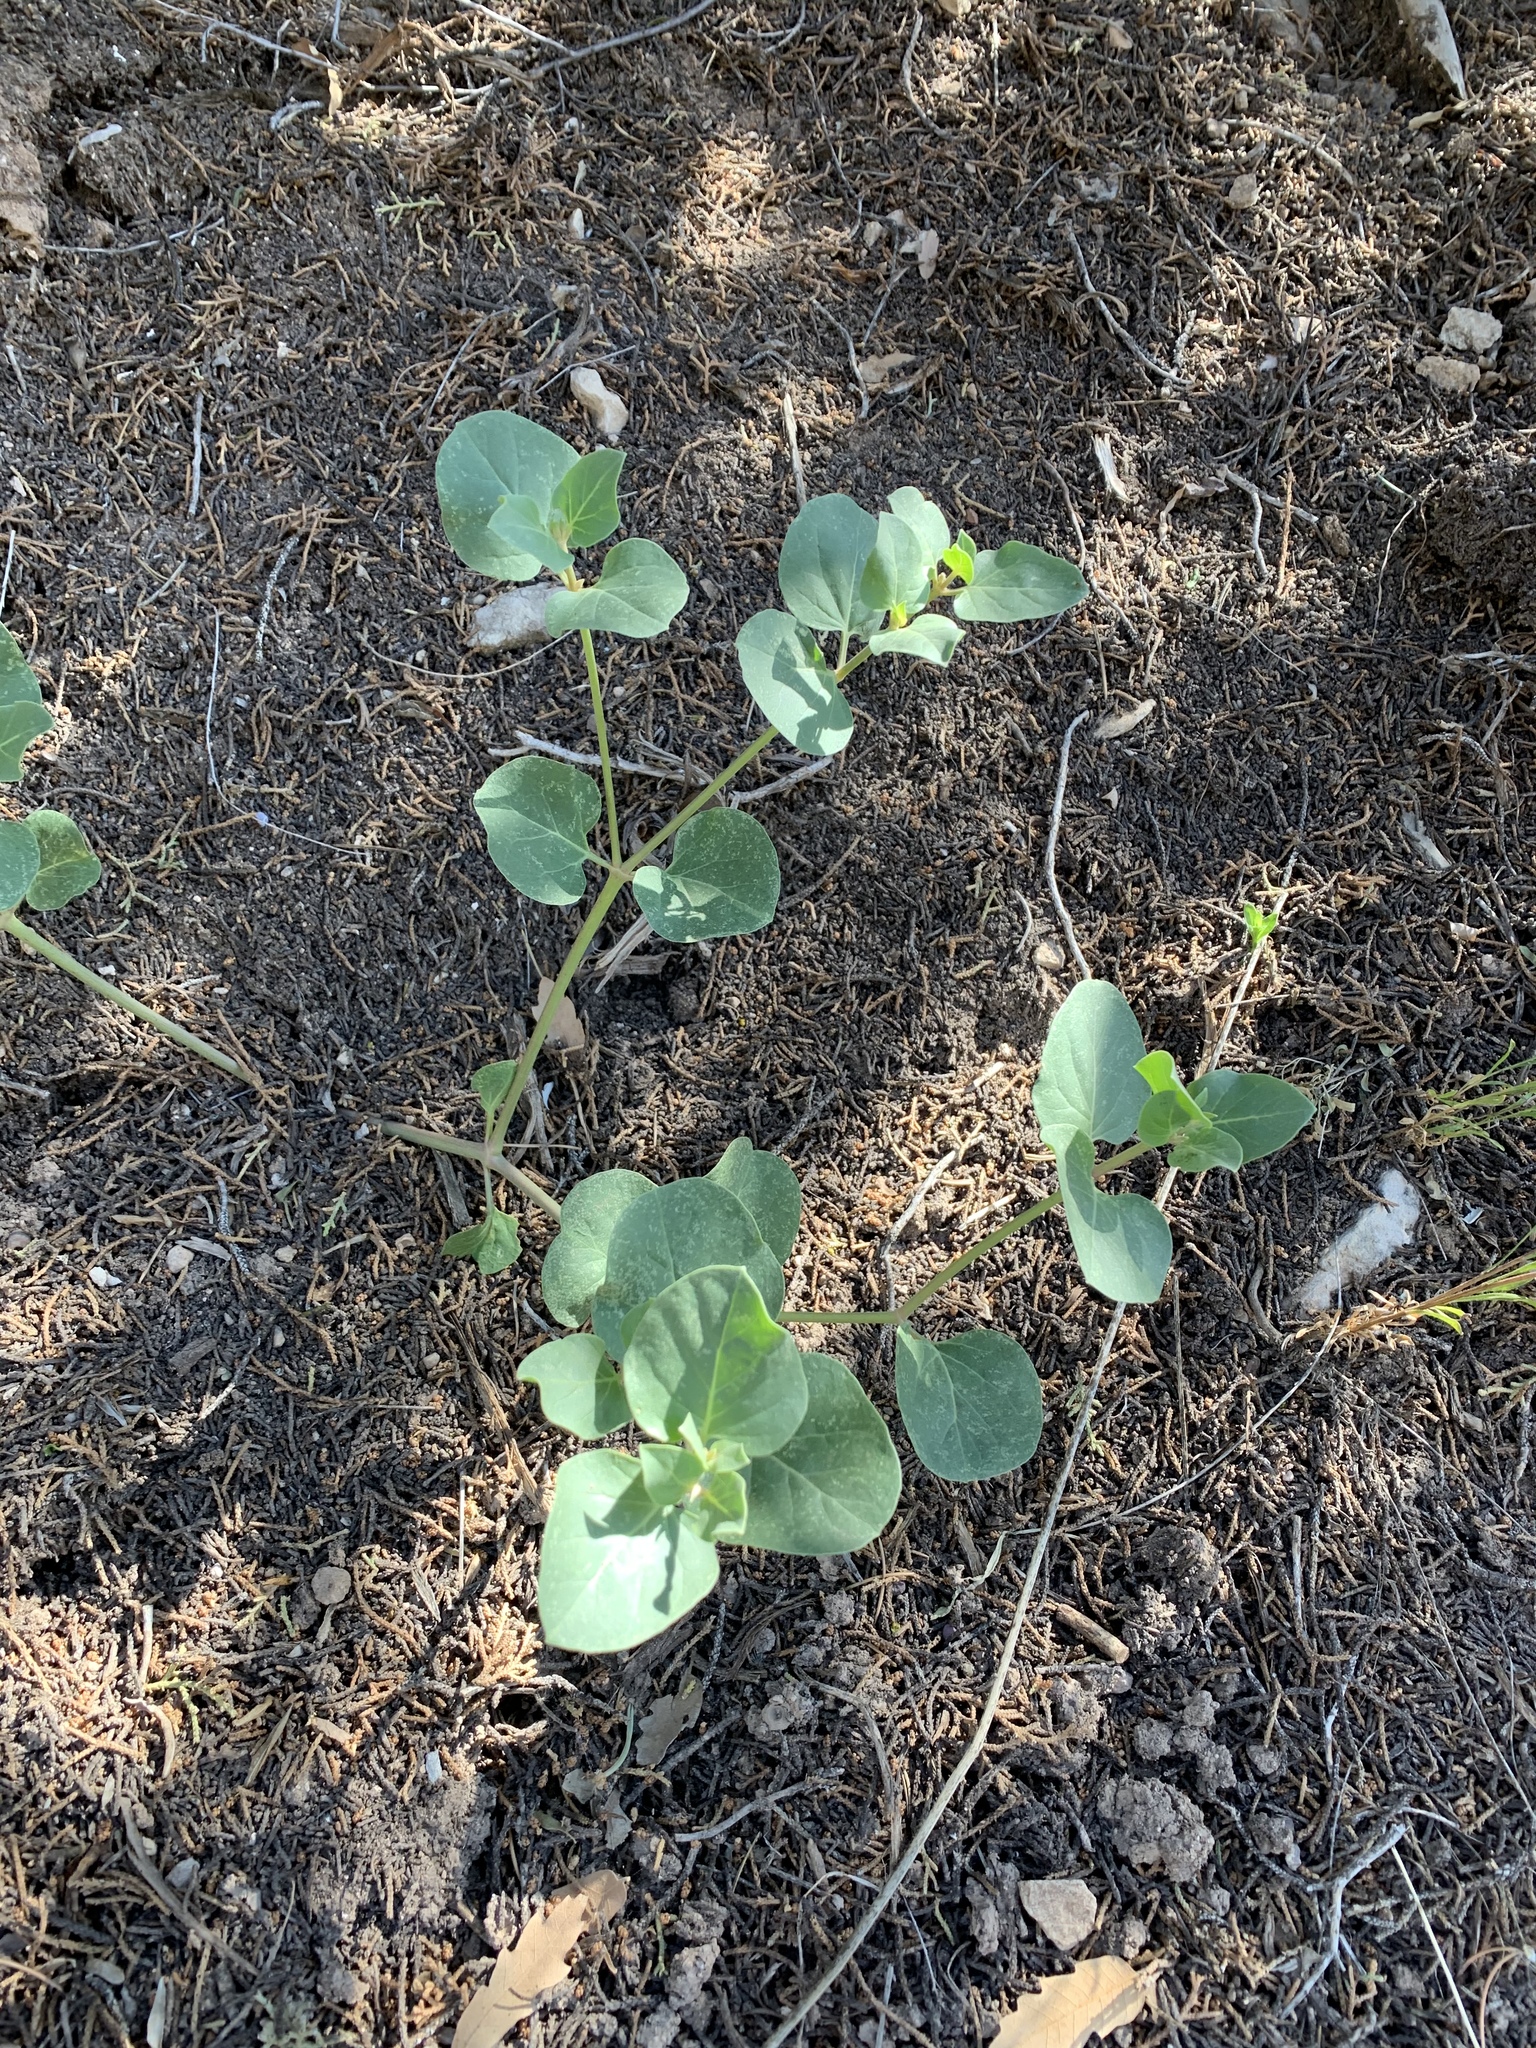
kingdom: Plantae
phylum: Tracheophyta
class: Magnoliopsida
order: Caryophyllales
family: Nyctaginaceae
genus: Mirabilis
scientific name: Mirabilis multiflora
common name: Froebel's four-o'clock
